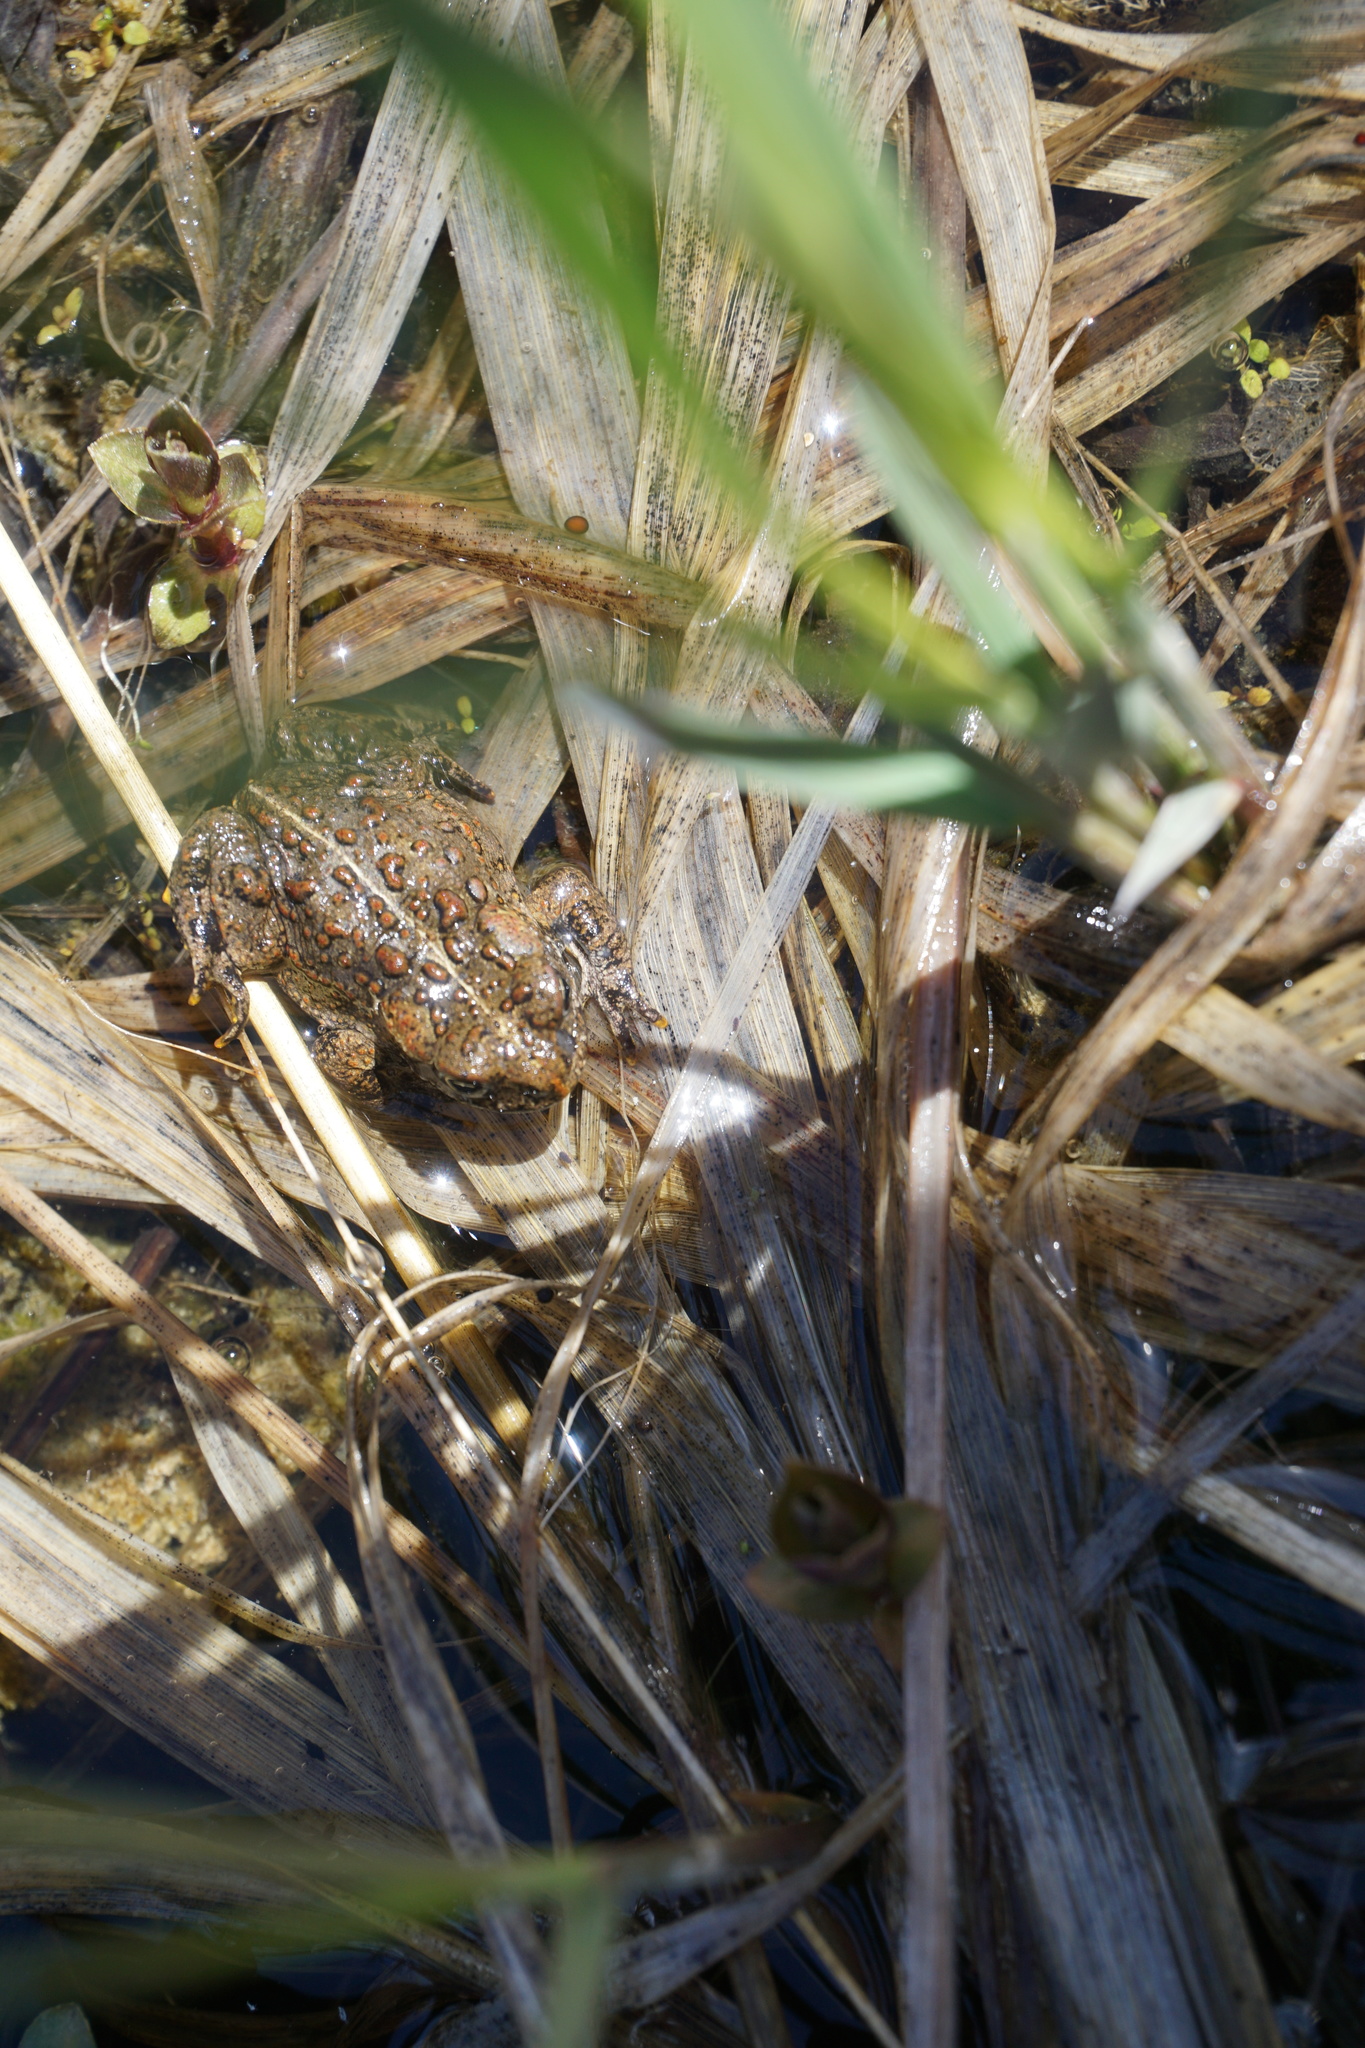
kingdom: Animalia
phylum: Chordata
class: Amphibia
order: Anura
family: Bufonidae
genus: Anaxyrus
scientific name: Anaxyrus boreas
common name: Western toad
